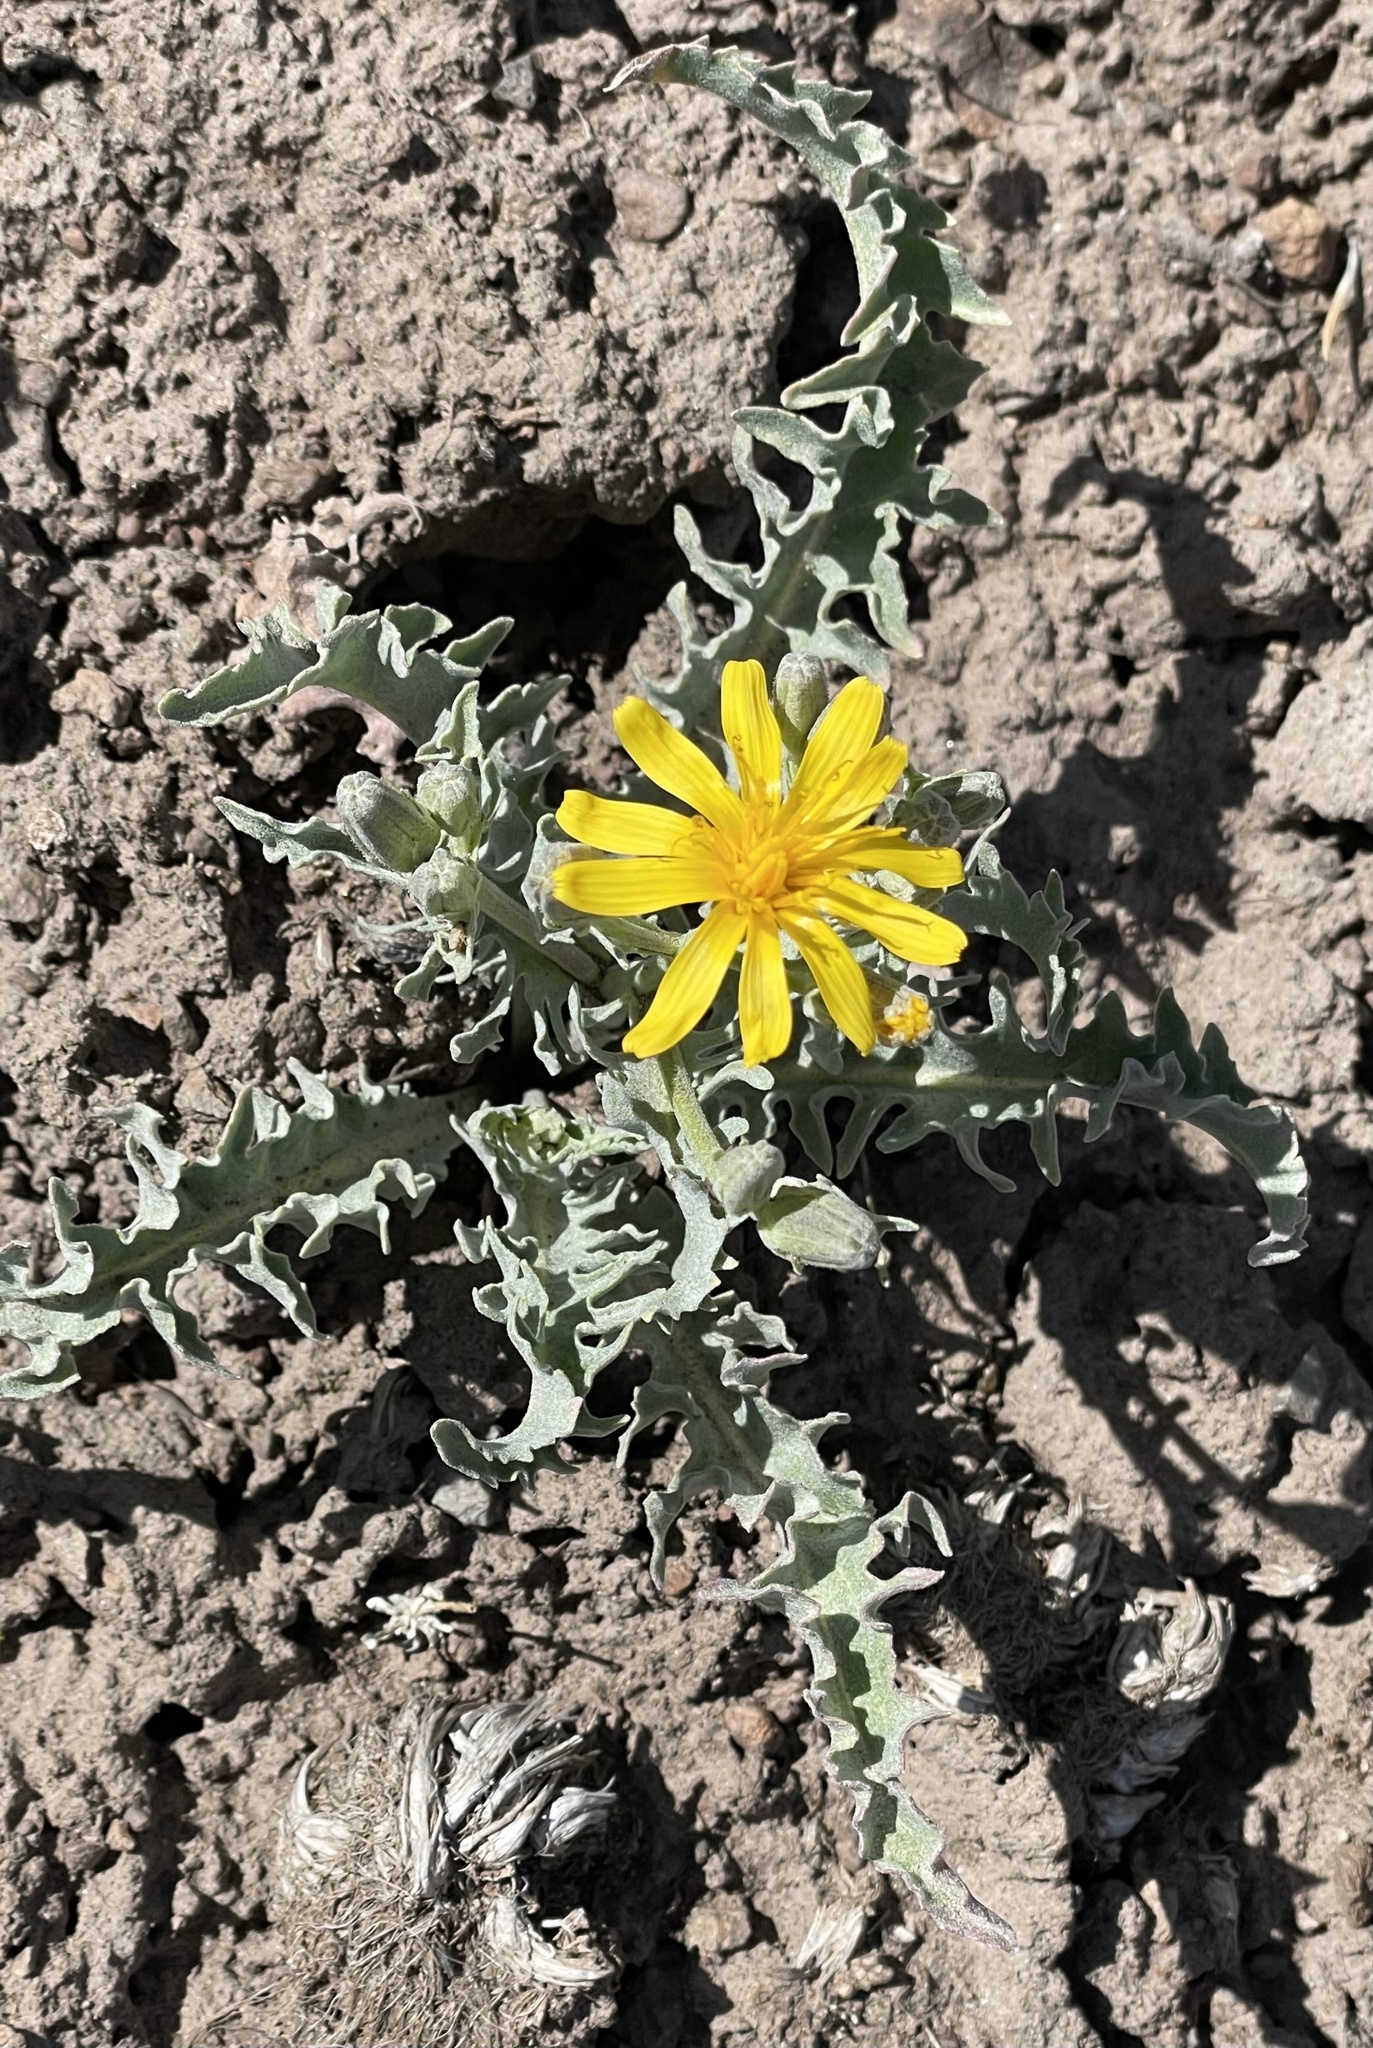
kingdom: Plantae
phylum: Tracheophyta
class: Magnoliopsida
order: Asterales
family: Asteraceae
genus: Crepis
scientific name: Crepis occidentalis
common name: Gray hawk's-beard
